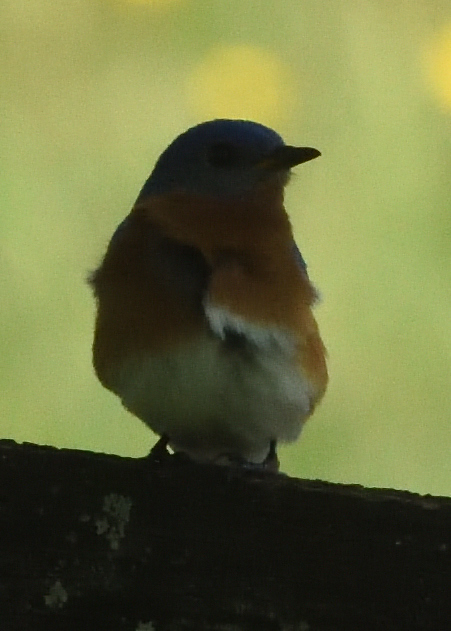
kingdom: Animalia
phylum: Chordata
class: Aves
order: Passeriformes
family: Turdidae
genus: Sialia
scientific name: Sialia sialis
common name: Eastern bluebird
